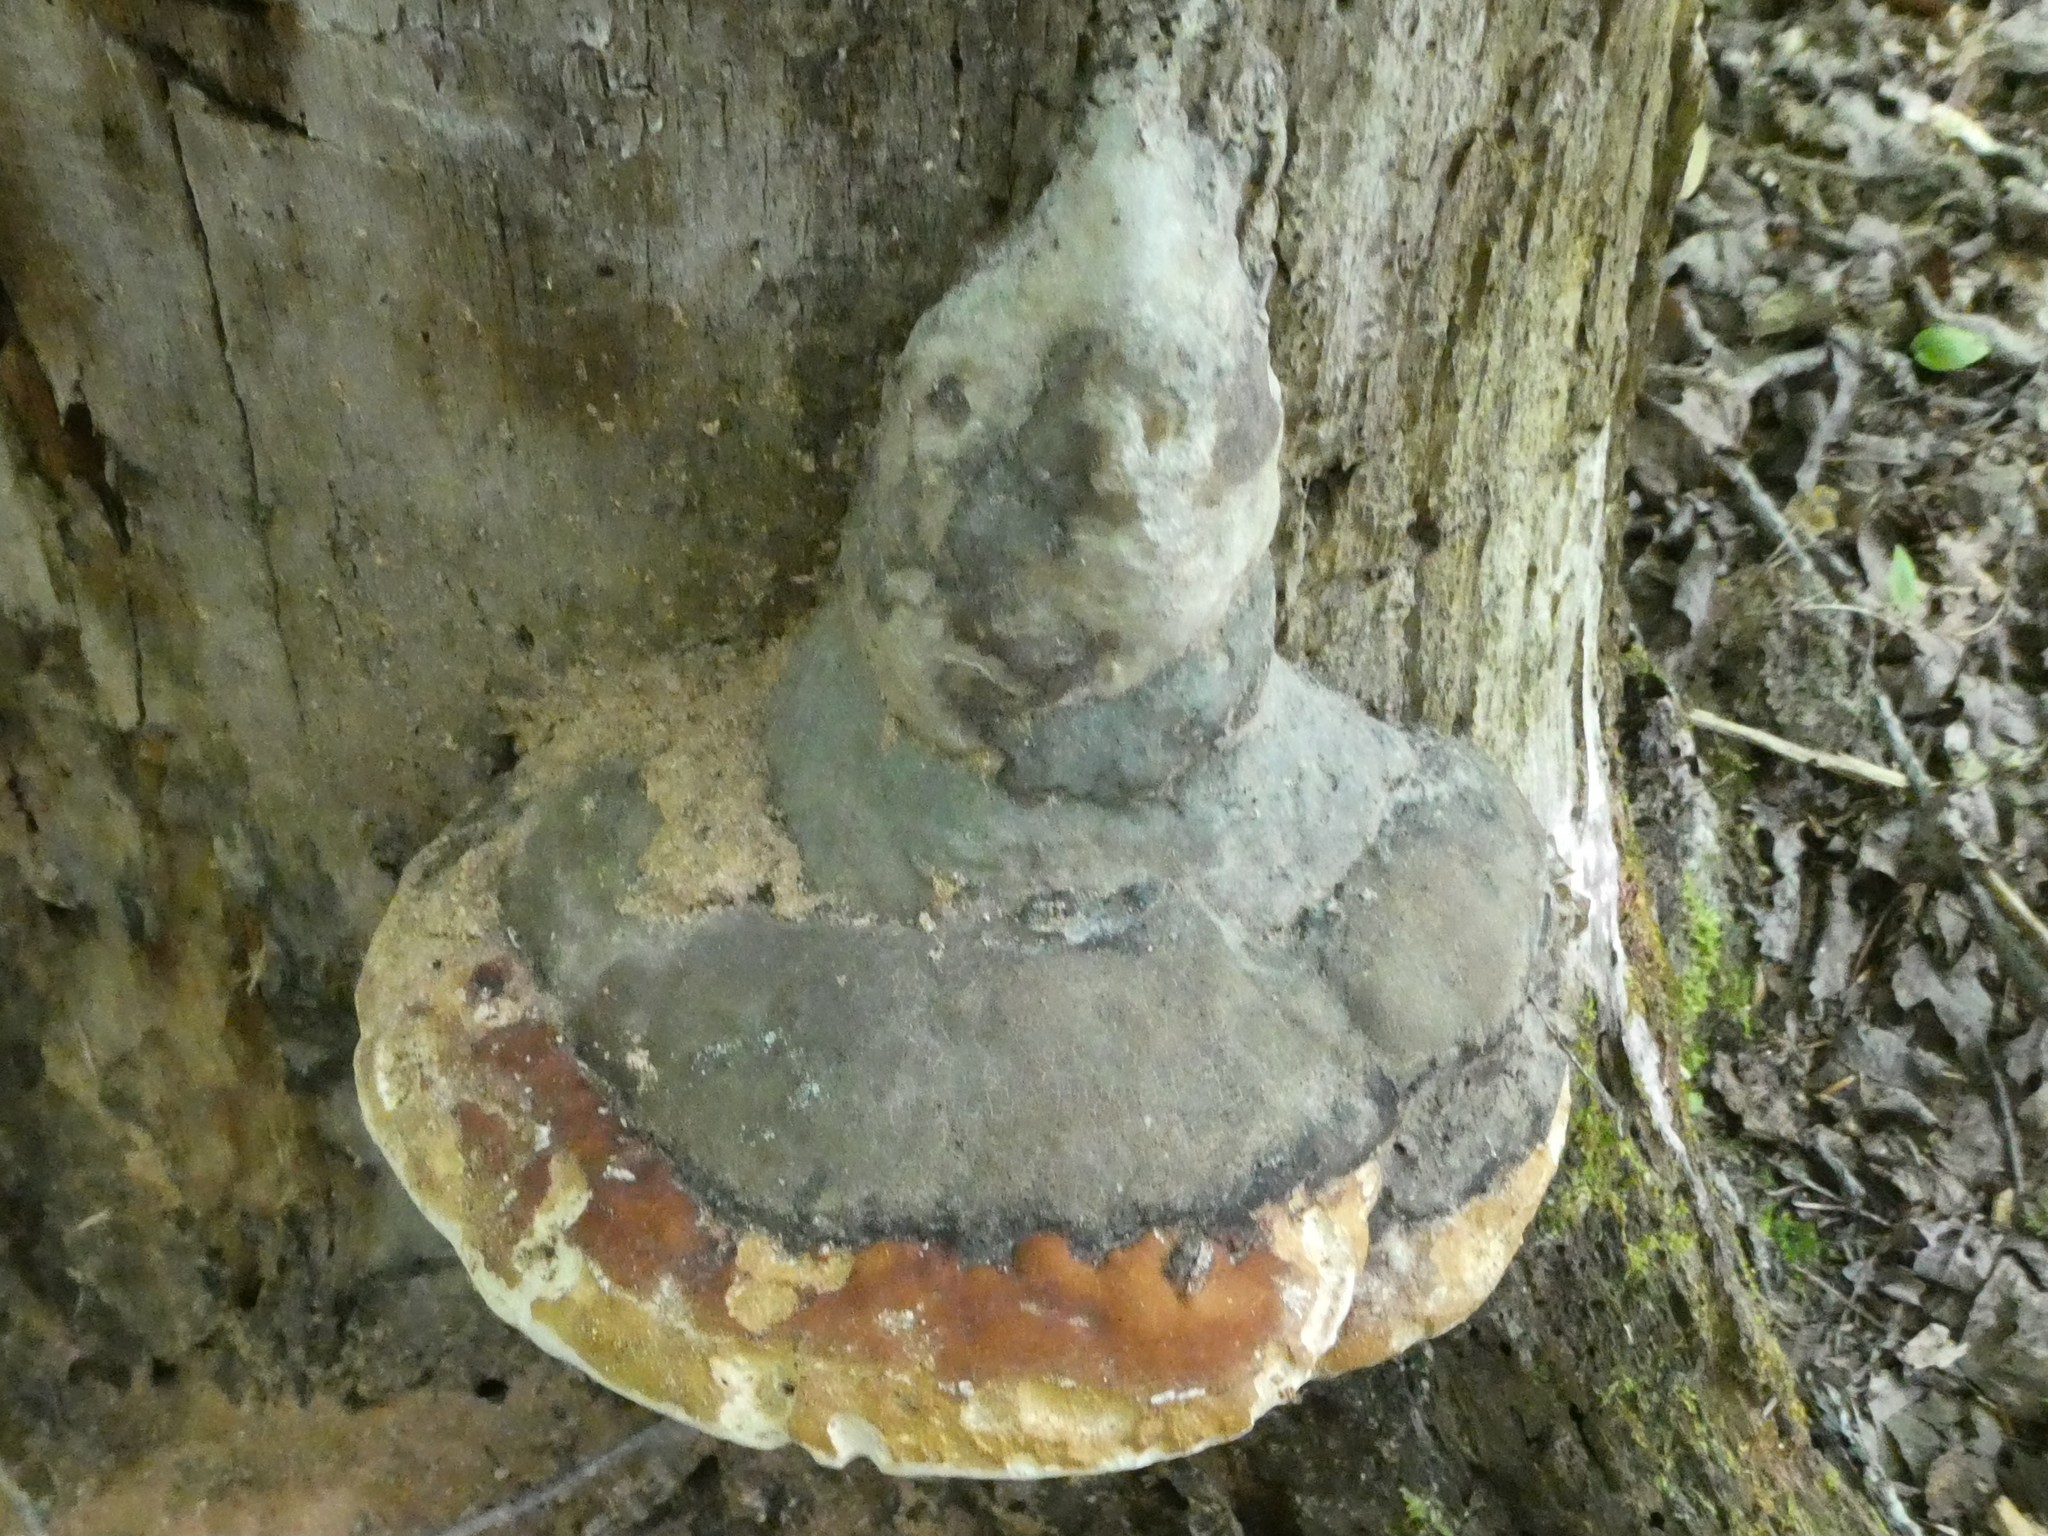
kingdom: Fungi
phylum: Basidiomycota
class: Agaricomycetes
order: Polyporales
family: Fomitopsidaceae
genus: Fomitopsis
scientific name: Fomitopsis mounceae
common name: Northern red belt
